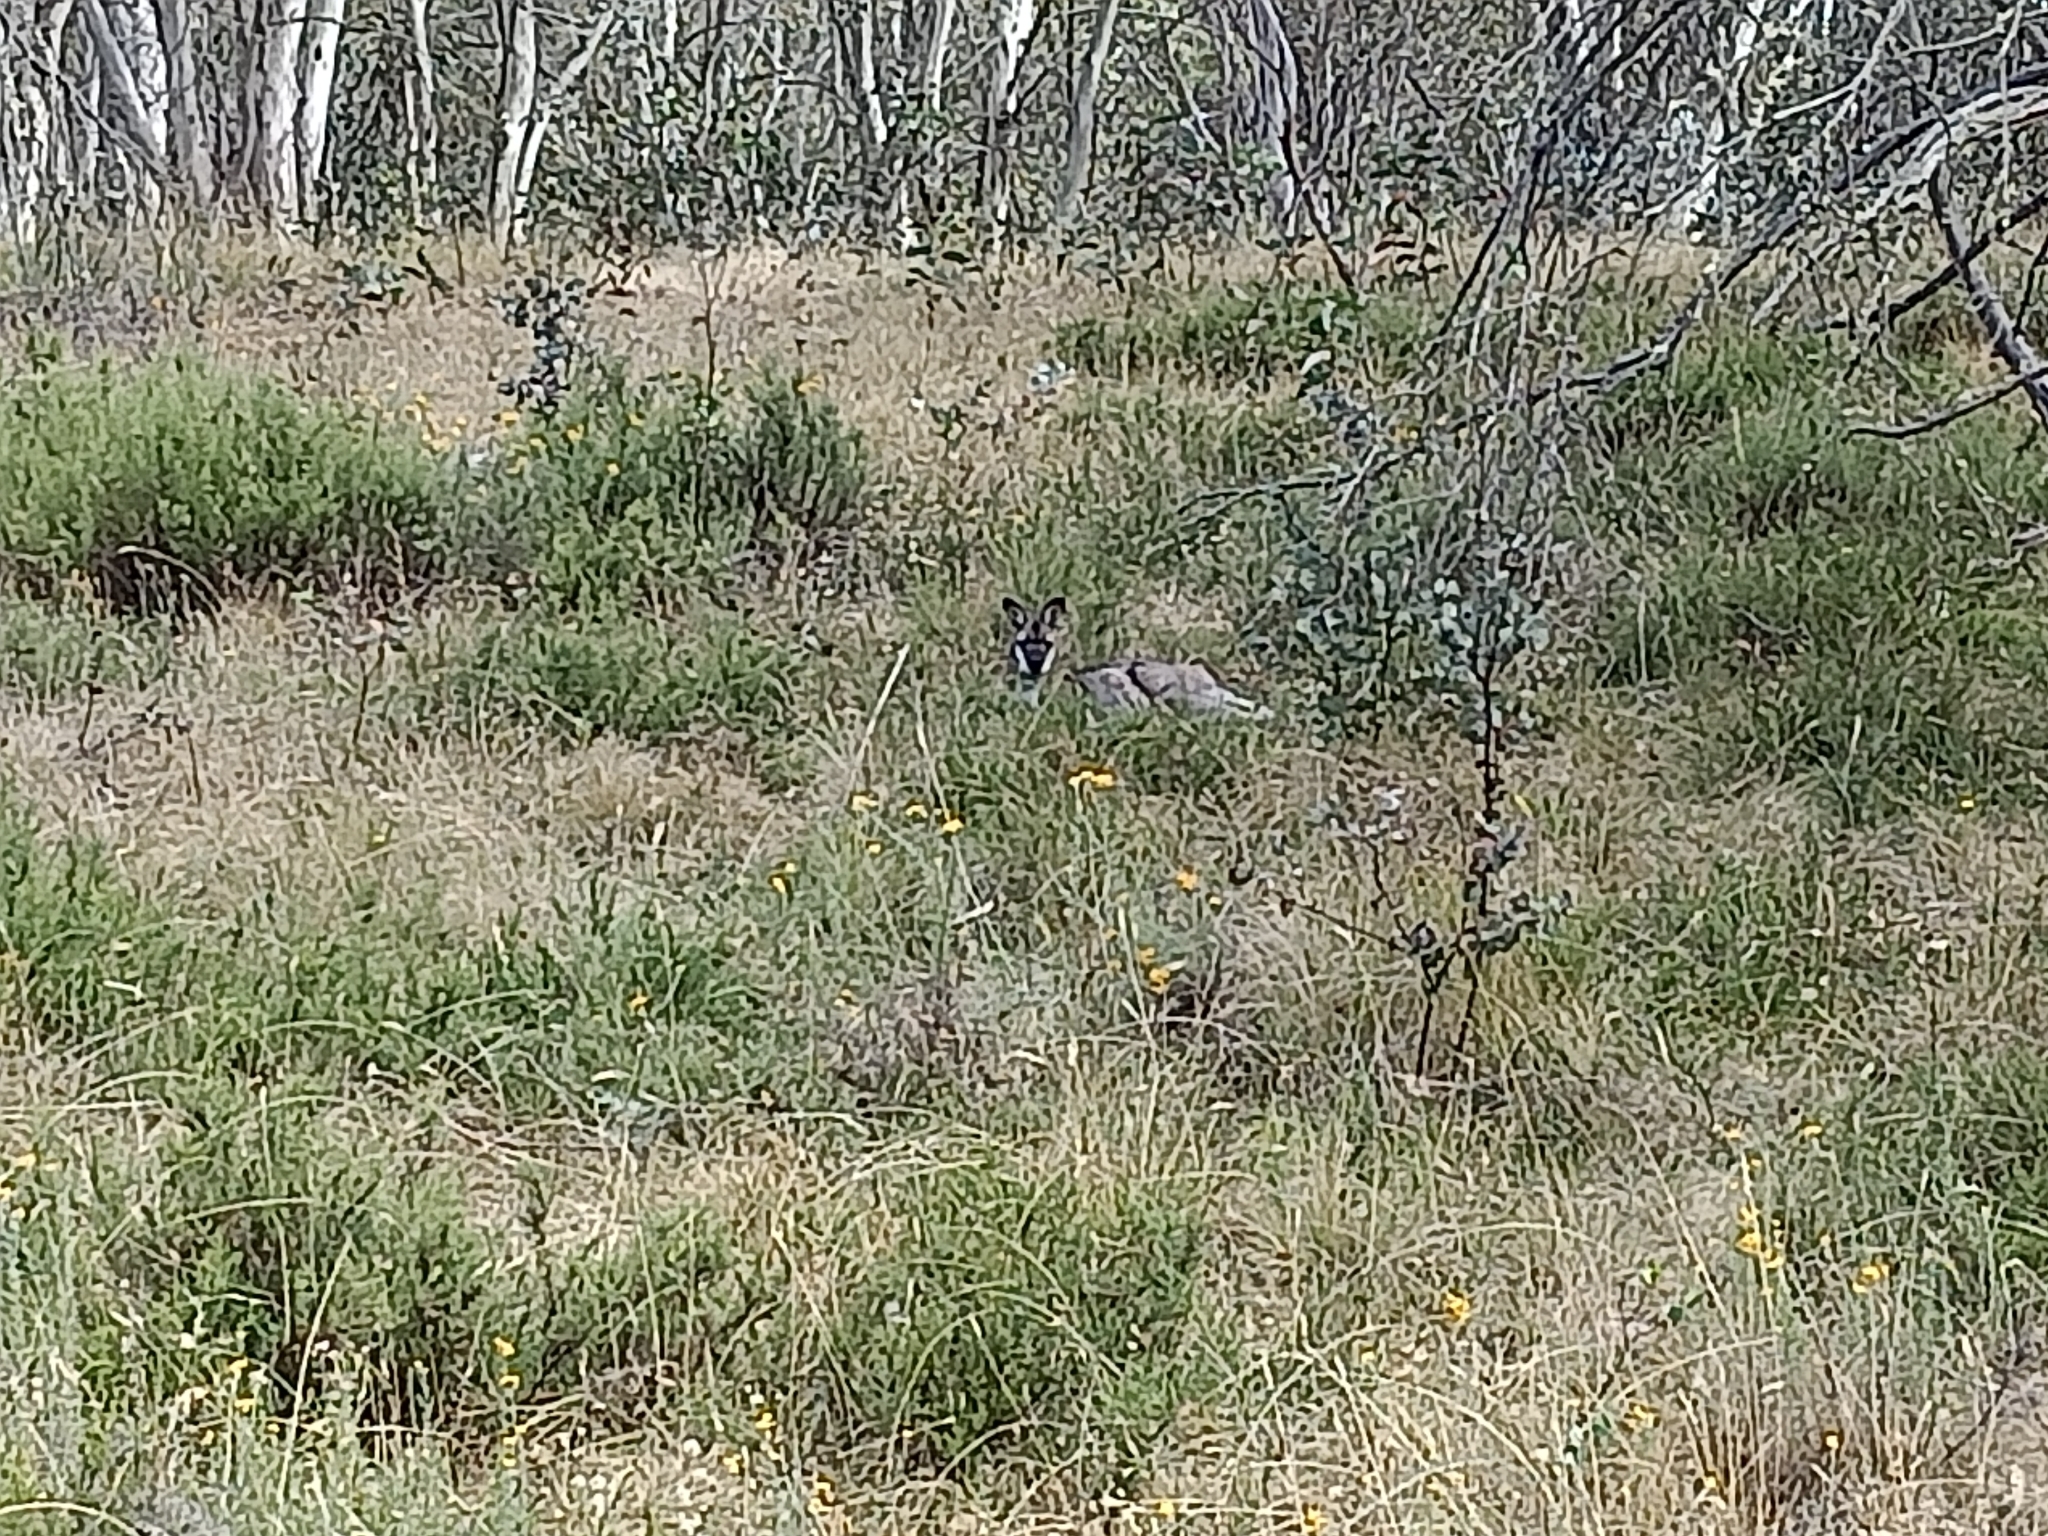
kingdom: Animalia
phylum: Chordata
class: Mammalia
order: Diprotodontia
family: Macropodidae
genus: Wallabia
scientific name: Wallabia bicolor
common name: Swamp wallaby
